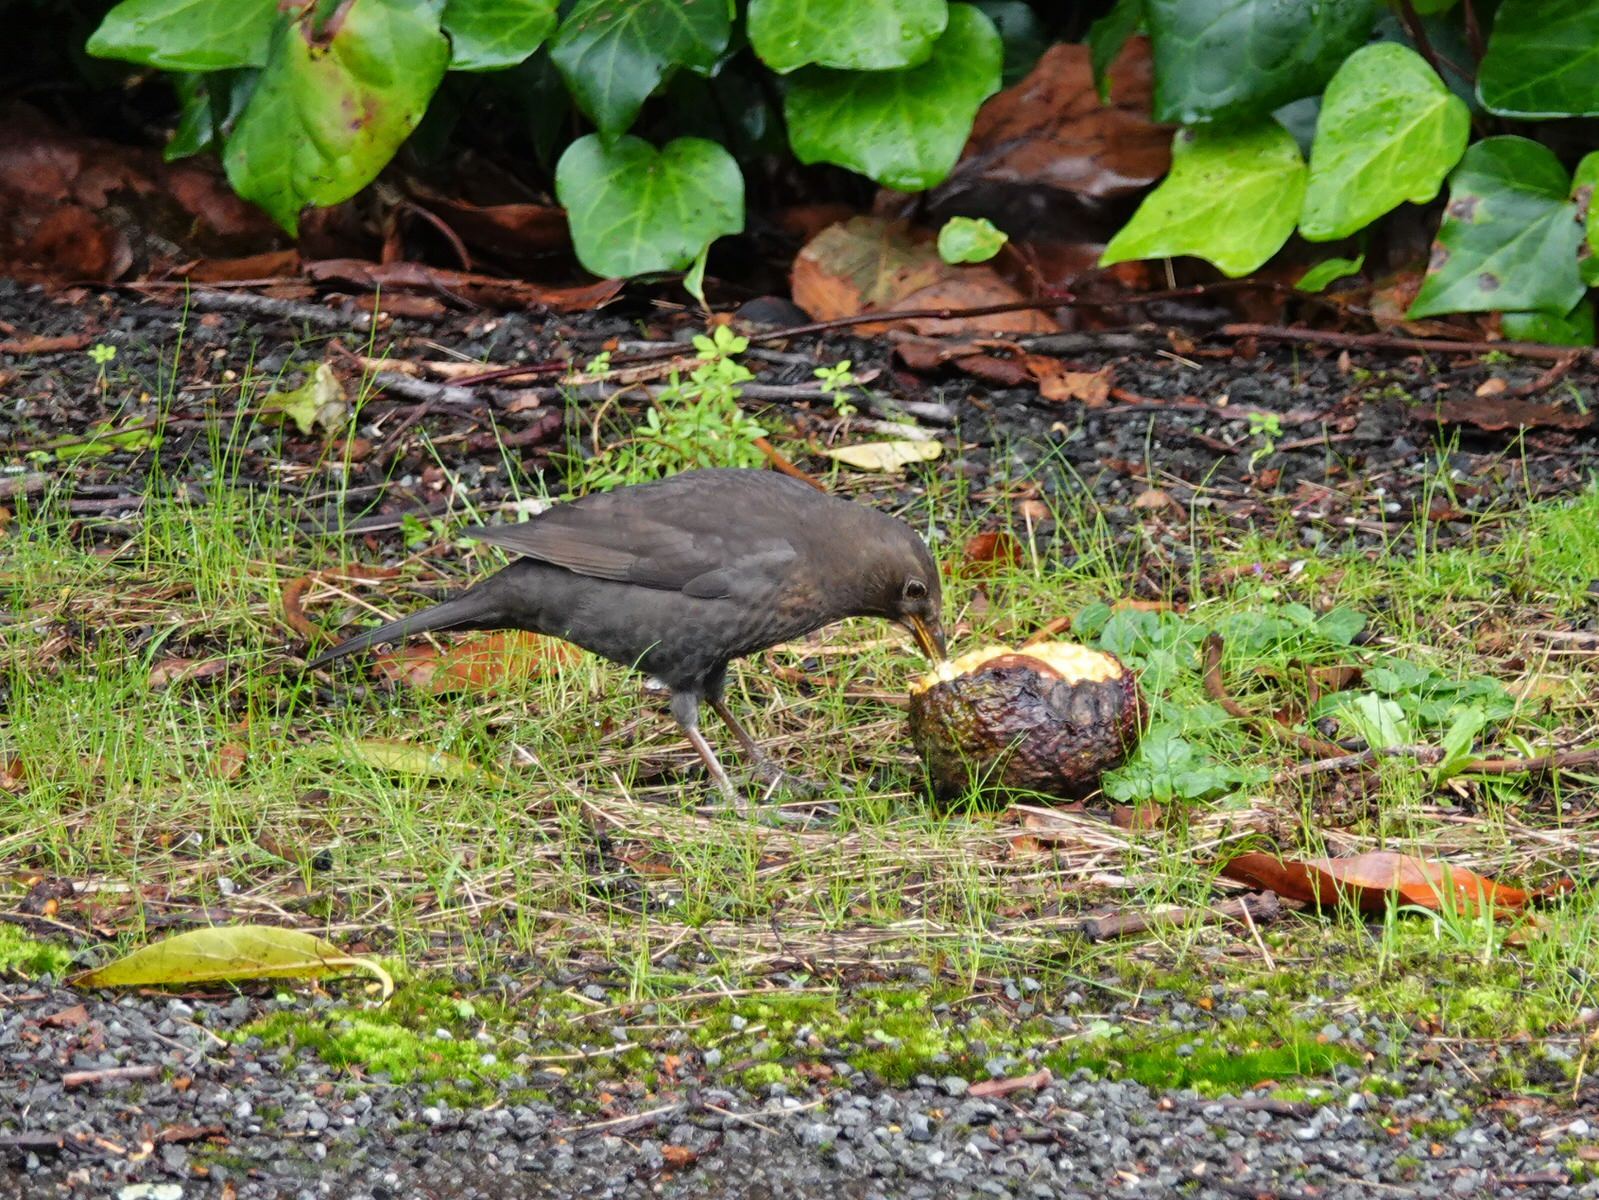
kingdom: Animalia
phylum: Chordata
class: Aves
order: Passeriformes
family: Turdidae
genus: Turdus
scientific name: Turdus merula
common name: Common blackbird
